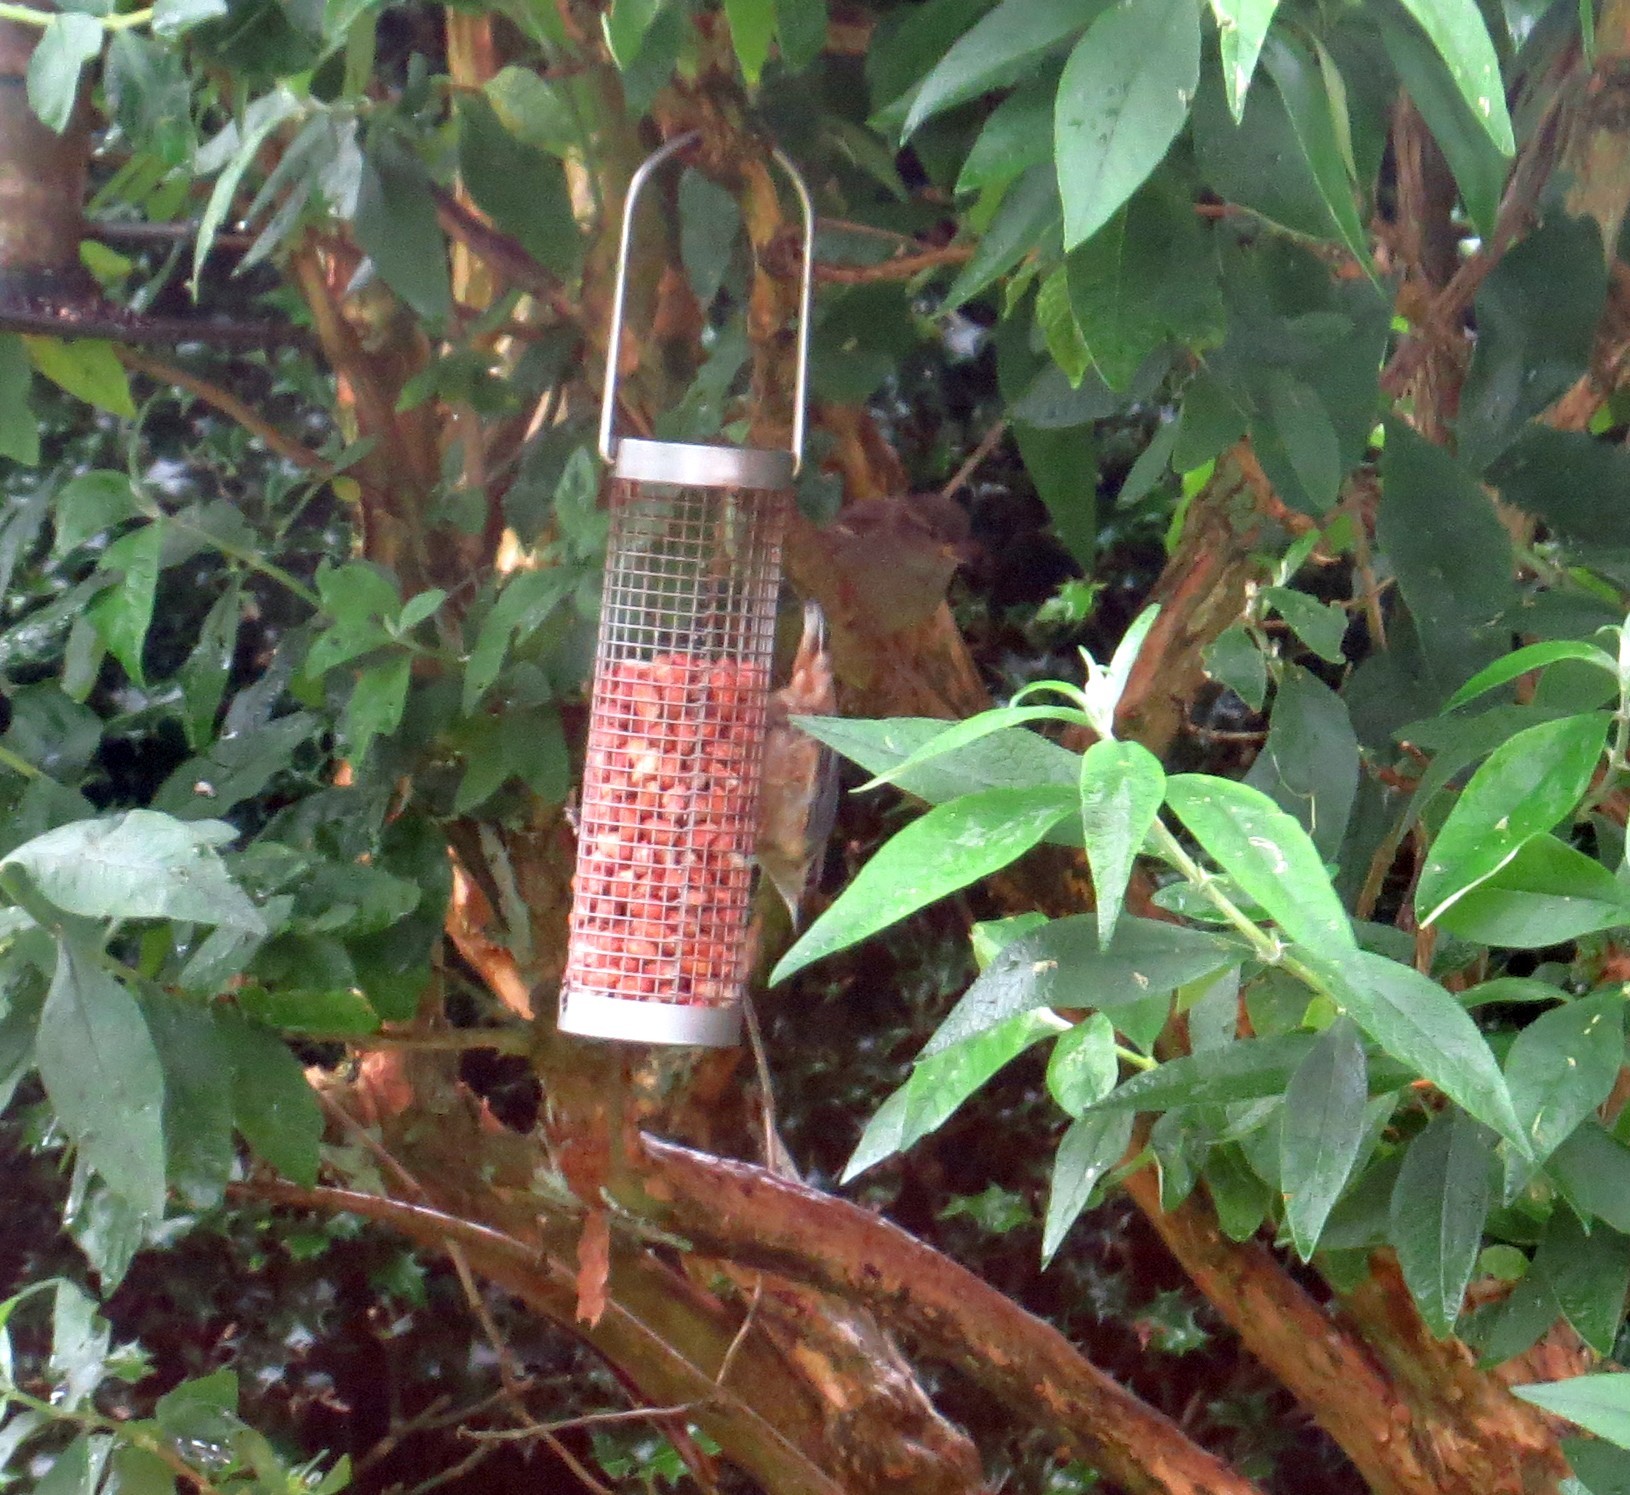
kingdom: Animalia
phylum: Chordata
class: Aves
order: Passeriformes
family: Sittidae
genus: Sitta
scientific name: Sitta europaea
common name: Eurasian nuthatch
